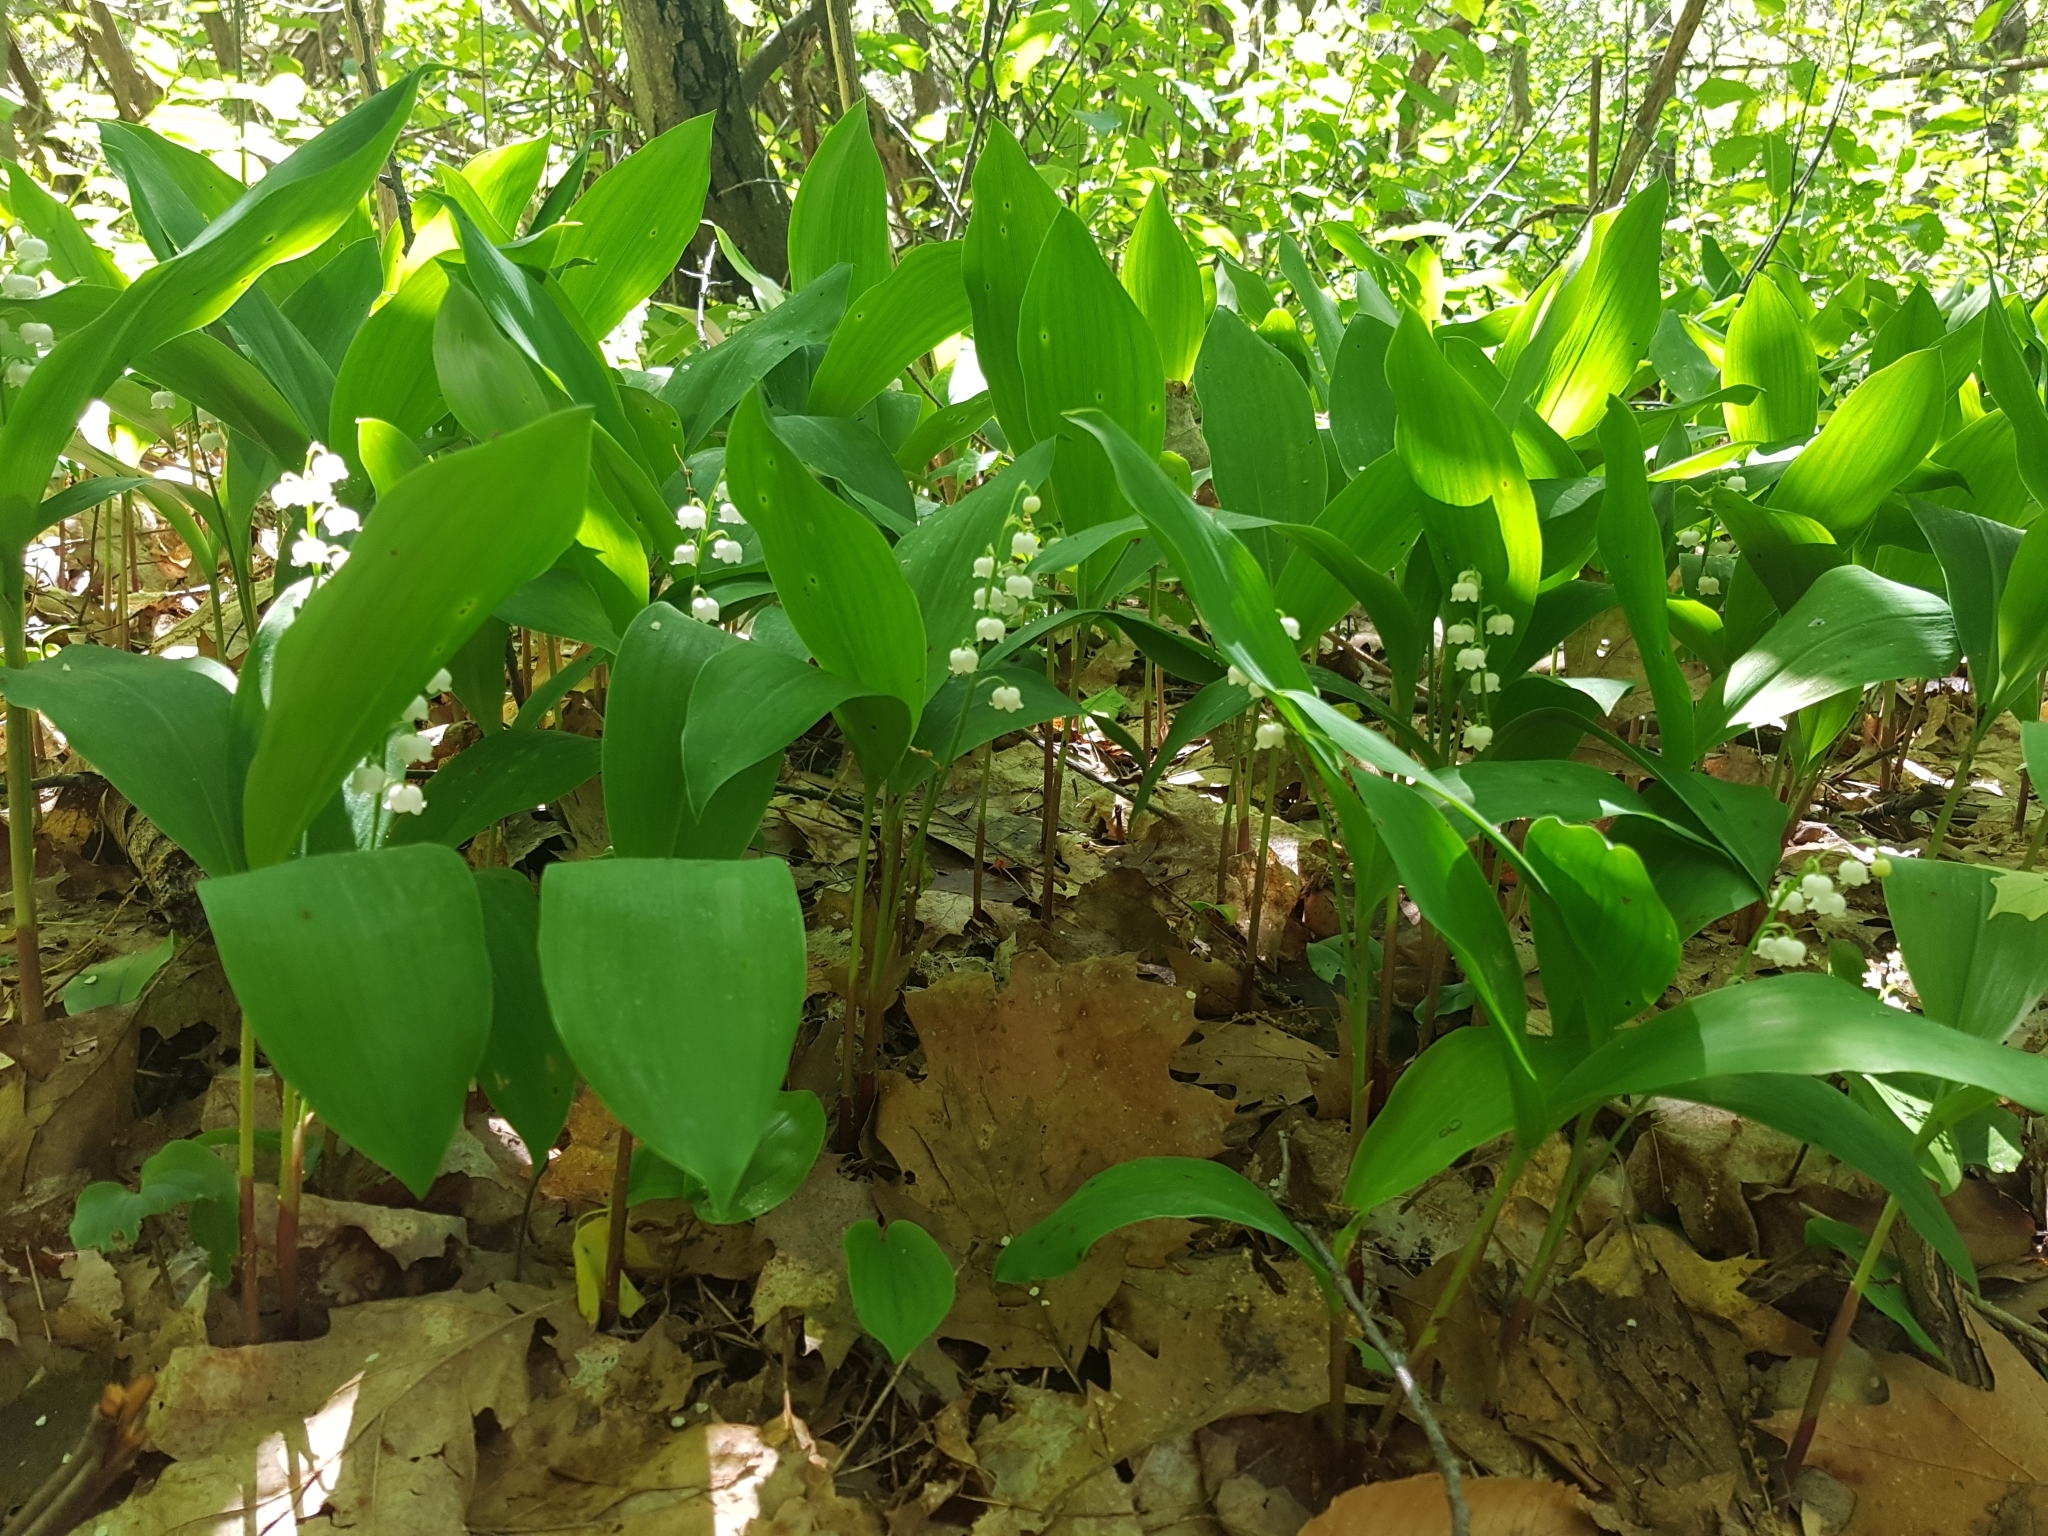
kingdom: Plantae
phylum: Tracheophyta
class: Liliopsida
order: Asparagales
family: Asparagaceae
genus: Convallaria
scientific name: Convallaria majalis
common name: Lily-of-the-valley
